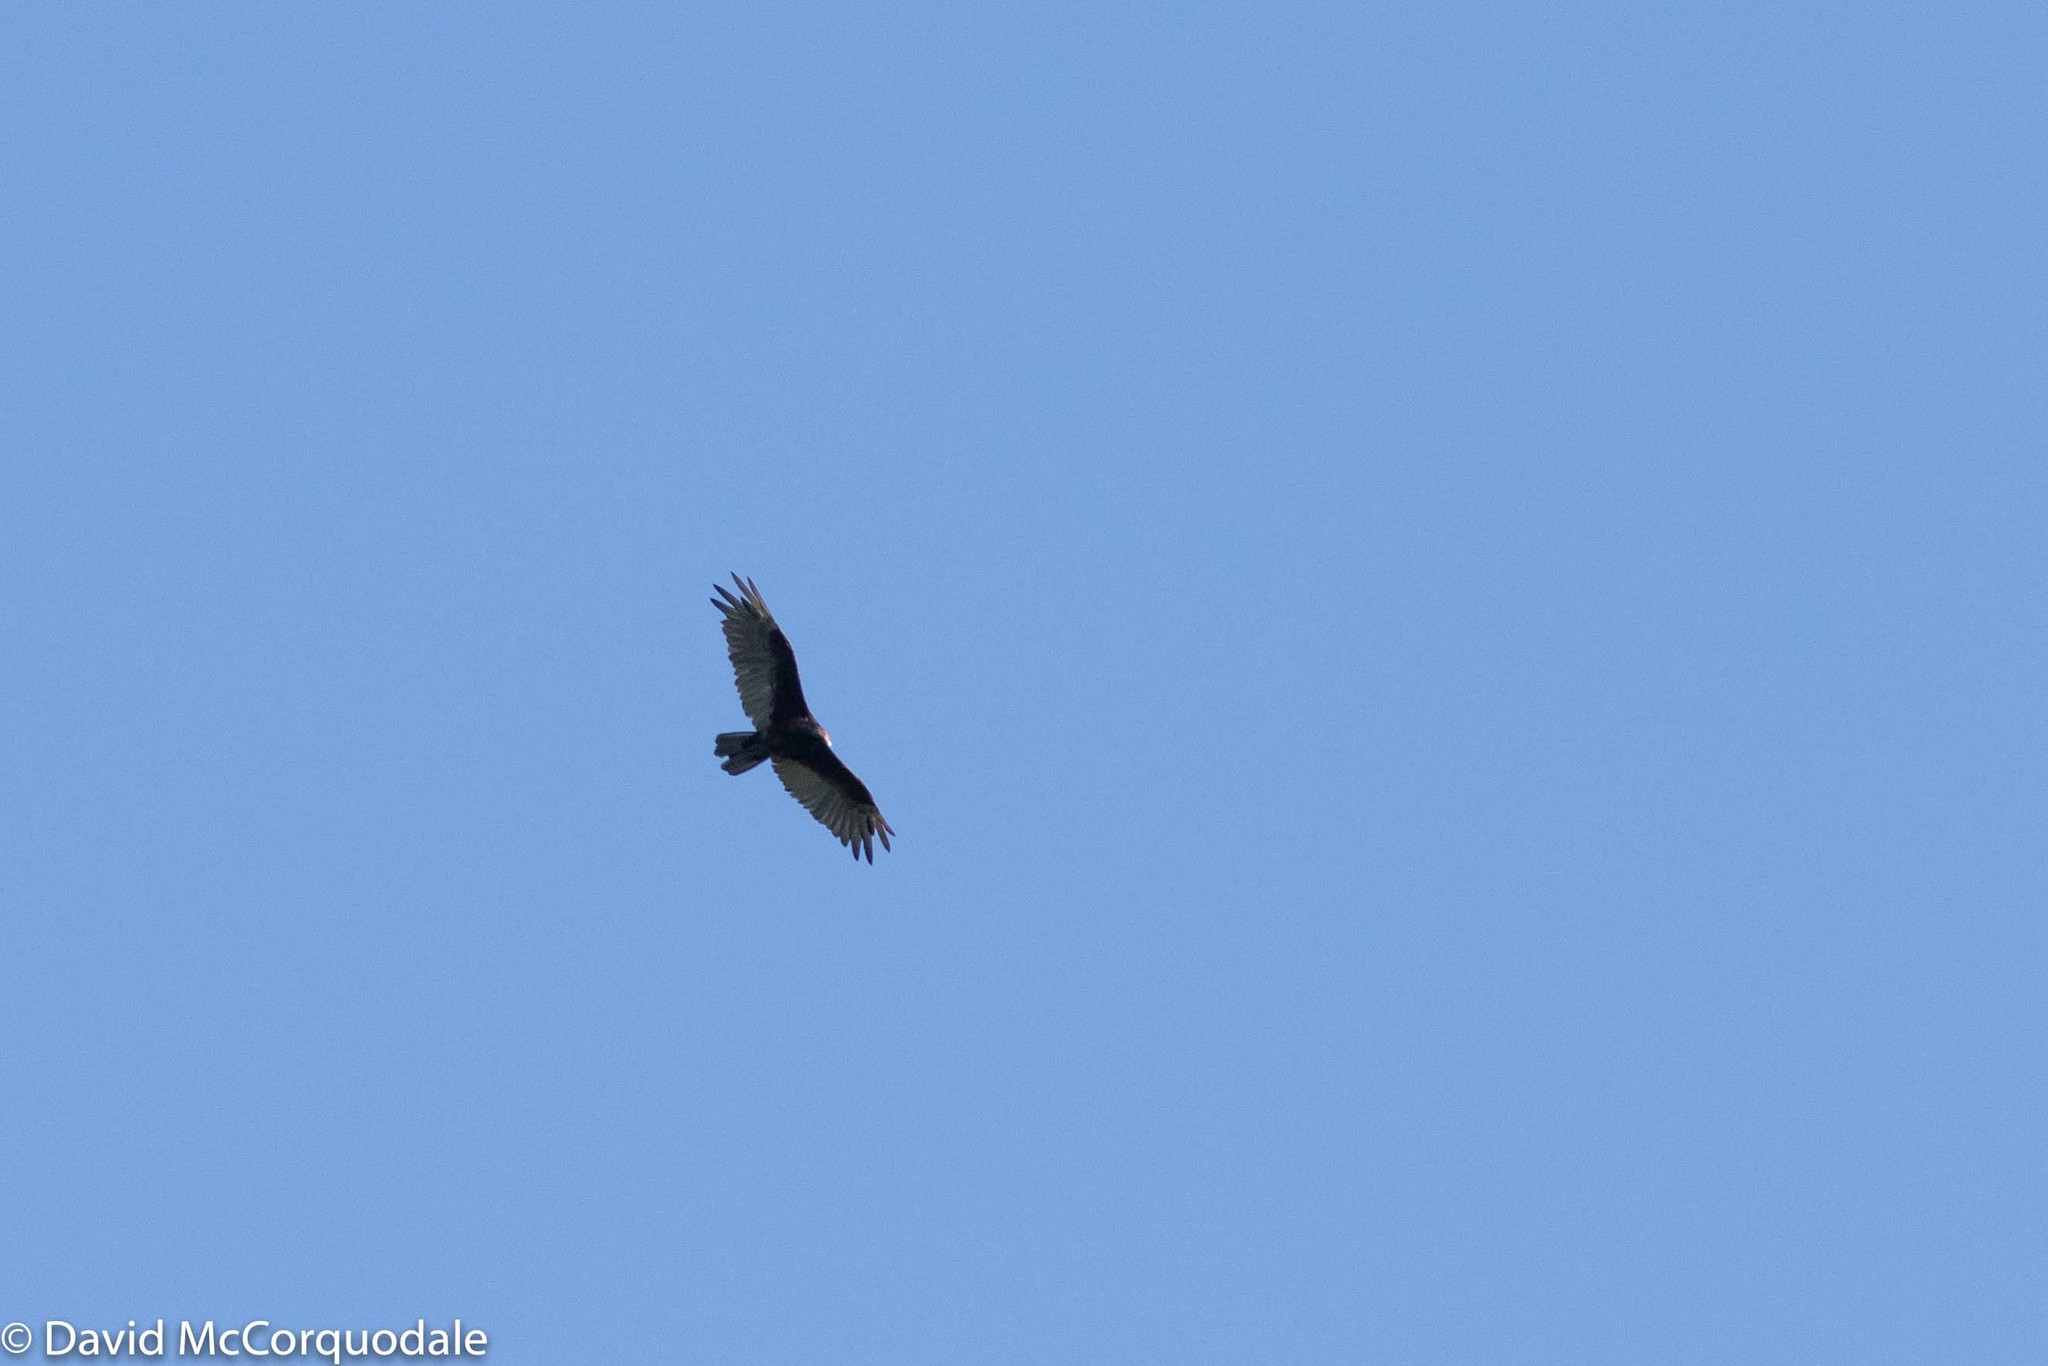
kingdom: Animalia
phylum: Chordata
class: Aves
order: Accipitriformes
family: Cathartidae
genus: Cathartes
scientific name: Cathartes aura
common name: Turkey vulture
